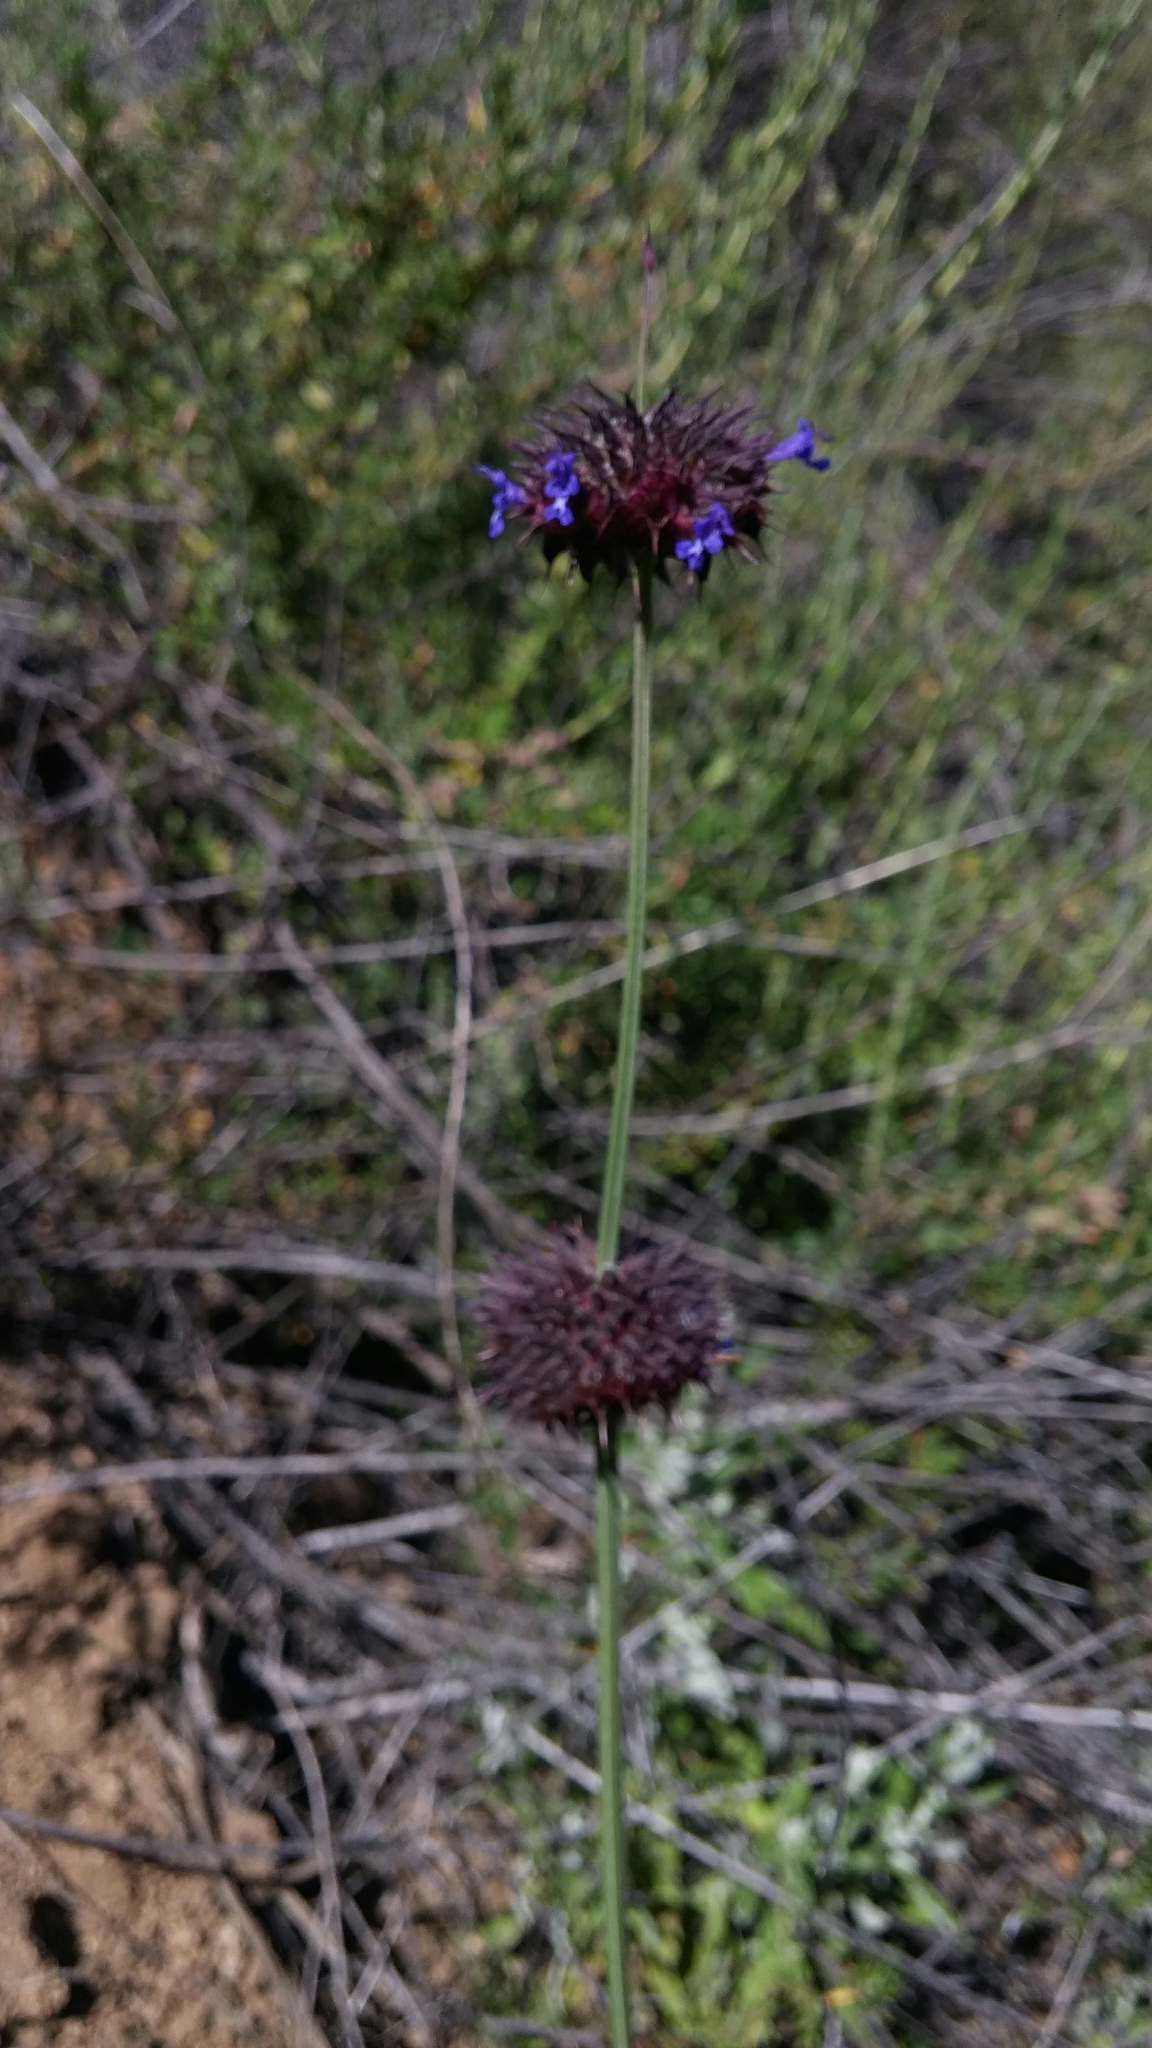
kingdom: Plantae
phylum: Tracheophyta
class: Magnoliopsida
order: Lamiales
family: Lamiaceae
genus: Salvia
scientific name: Salvia columbariae
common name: Chia
